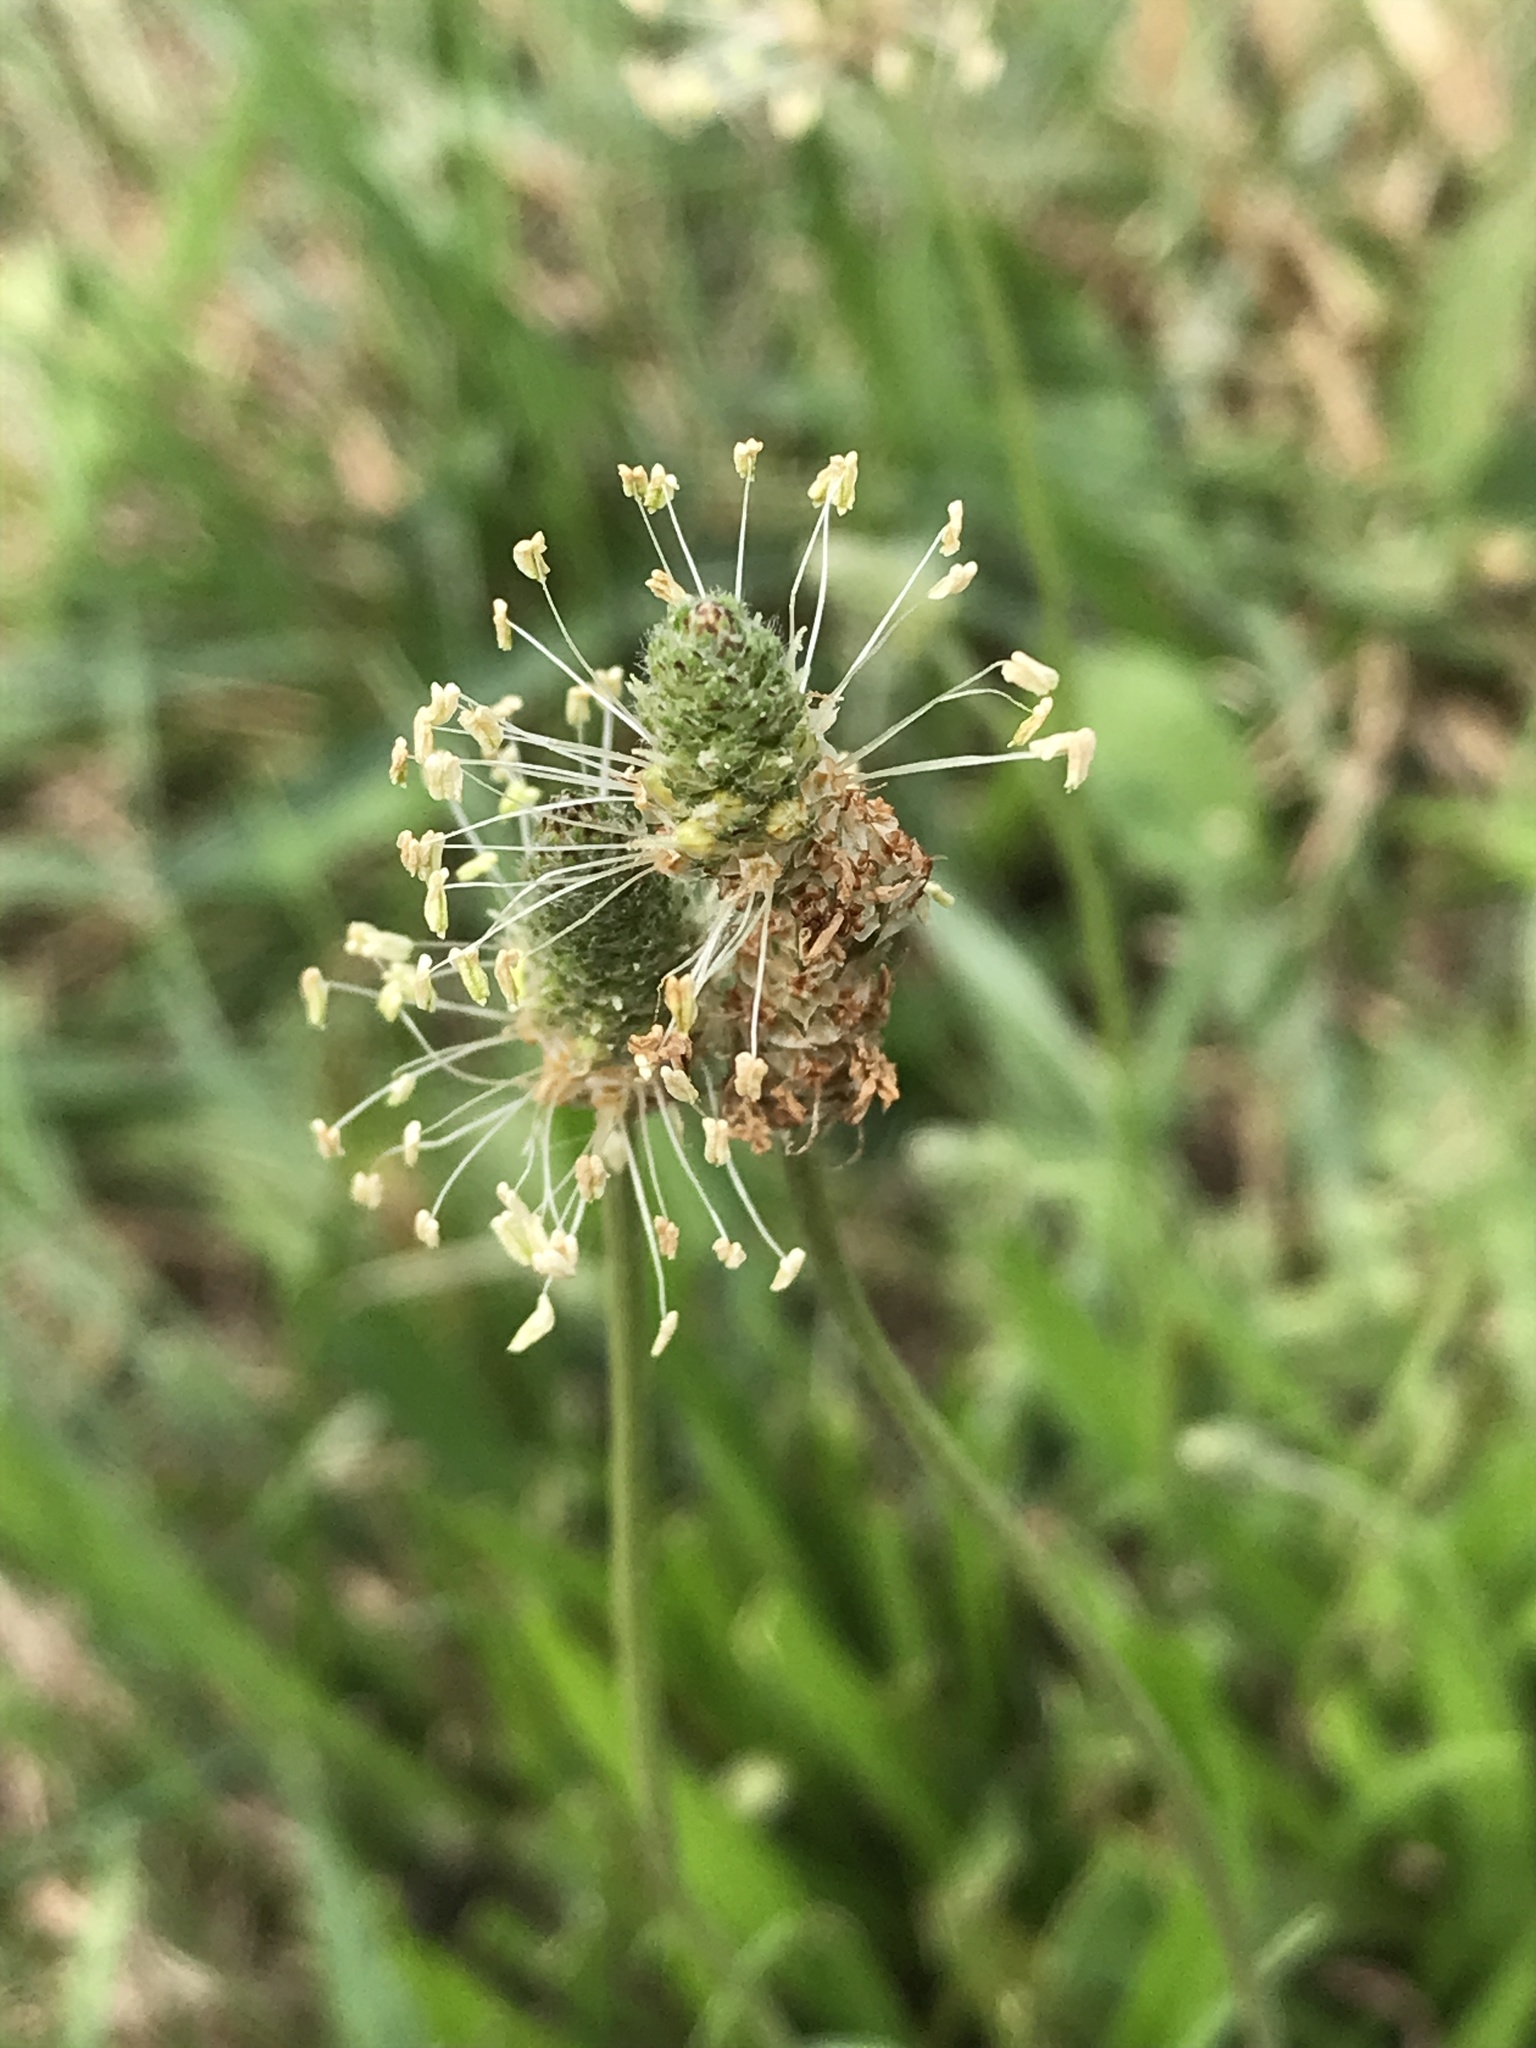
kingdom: Plantae
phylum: Tracheophyta
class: Magnoliopsida
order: Lamiales
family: Plantaginaceae
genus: Plantago
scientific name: Plantago lanceolata
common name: Ribwort plantain
